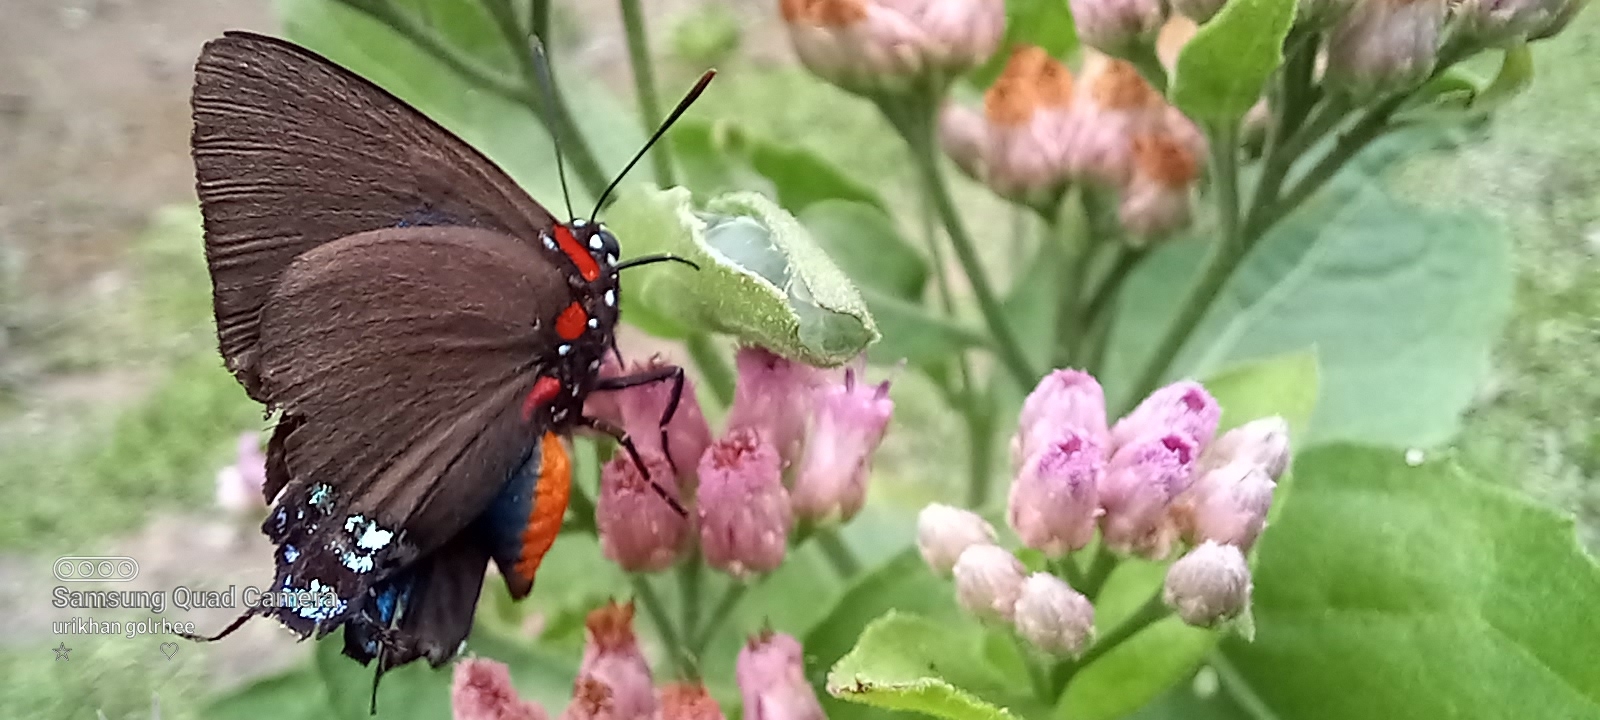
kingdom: Animalia
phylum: Arthropoda
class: Insecta
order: Lepidoptera
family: Lycaenidae
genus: Atlides
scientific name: Atlides halesus
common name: Great purple hairstreak
